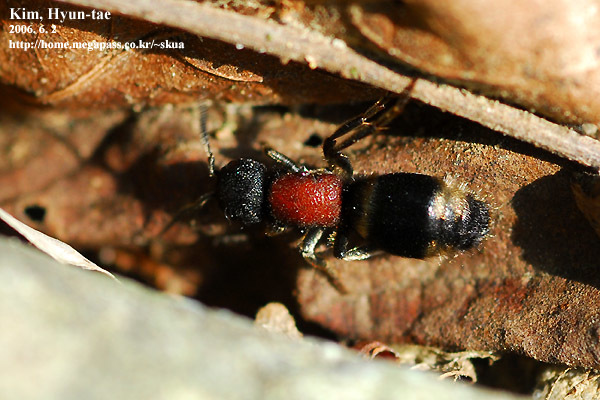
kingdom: Animalia
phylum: Arthropoda
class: Insecta
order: Hymenoptera
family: Mutillidae
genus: Mutilla
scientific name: Mutilla mikado
